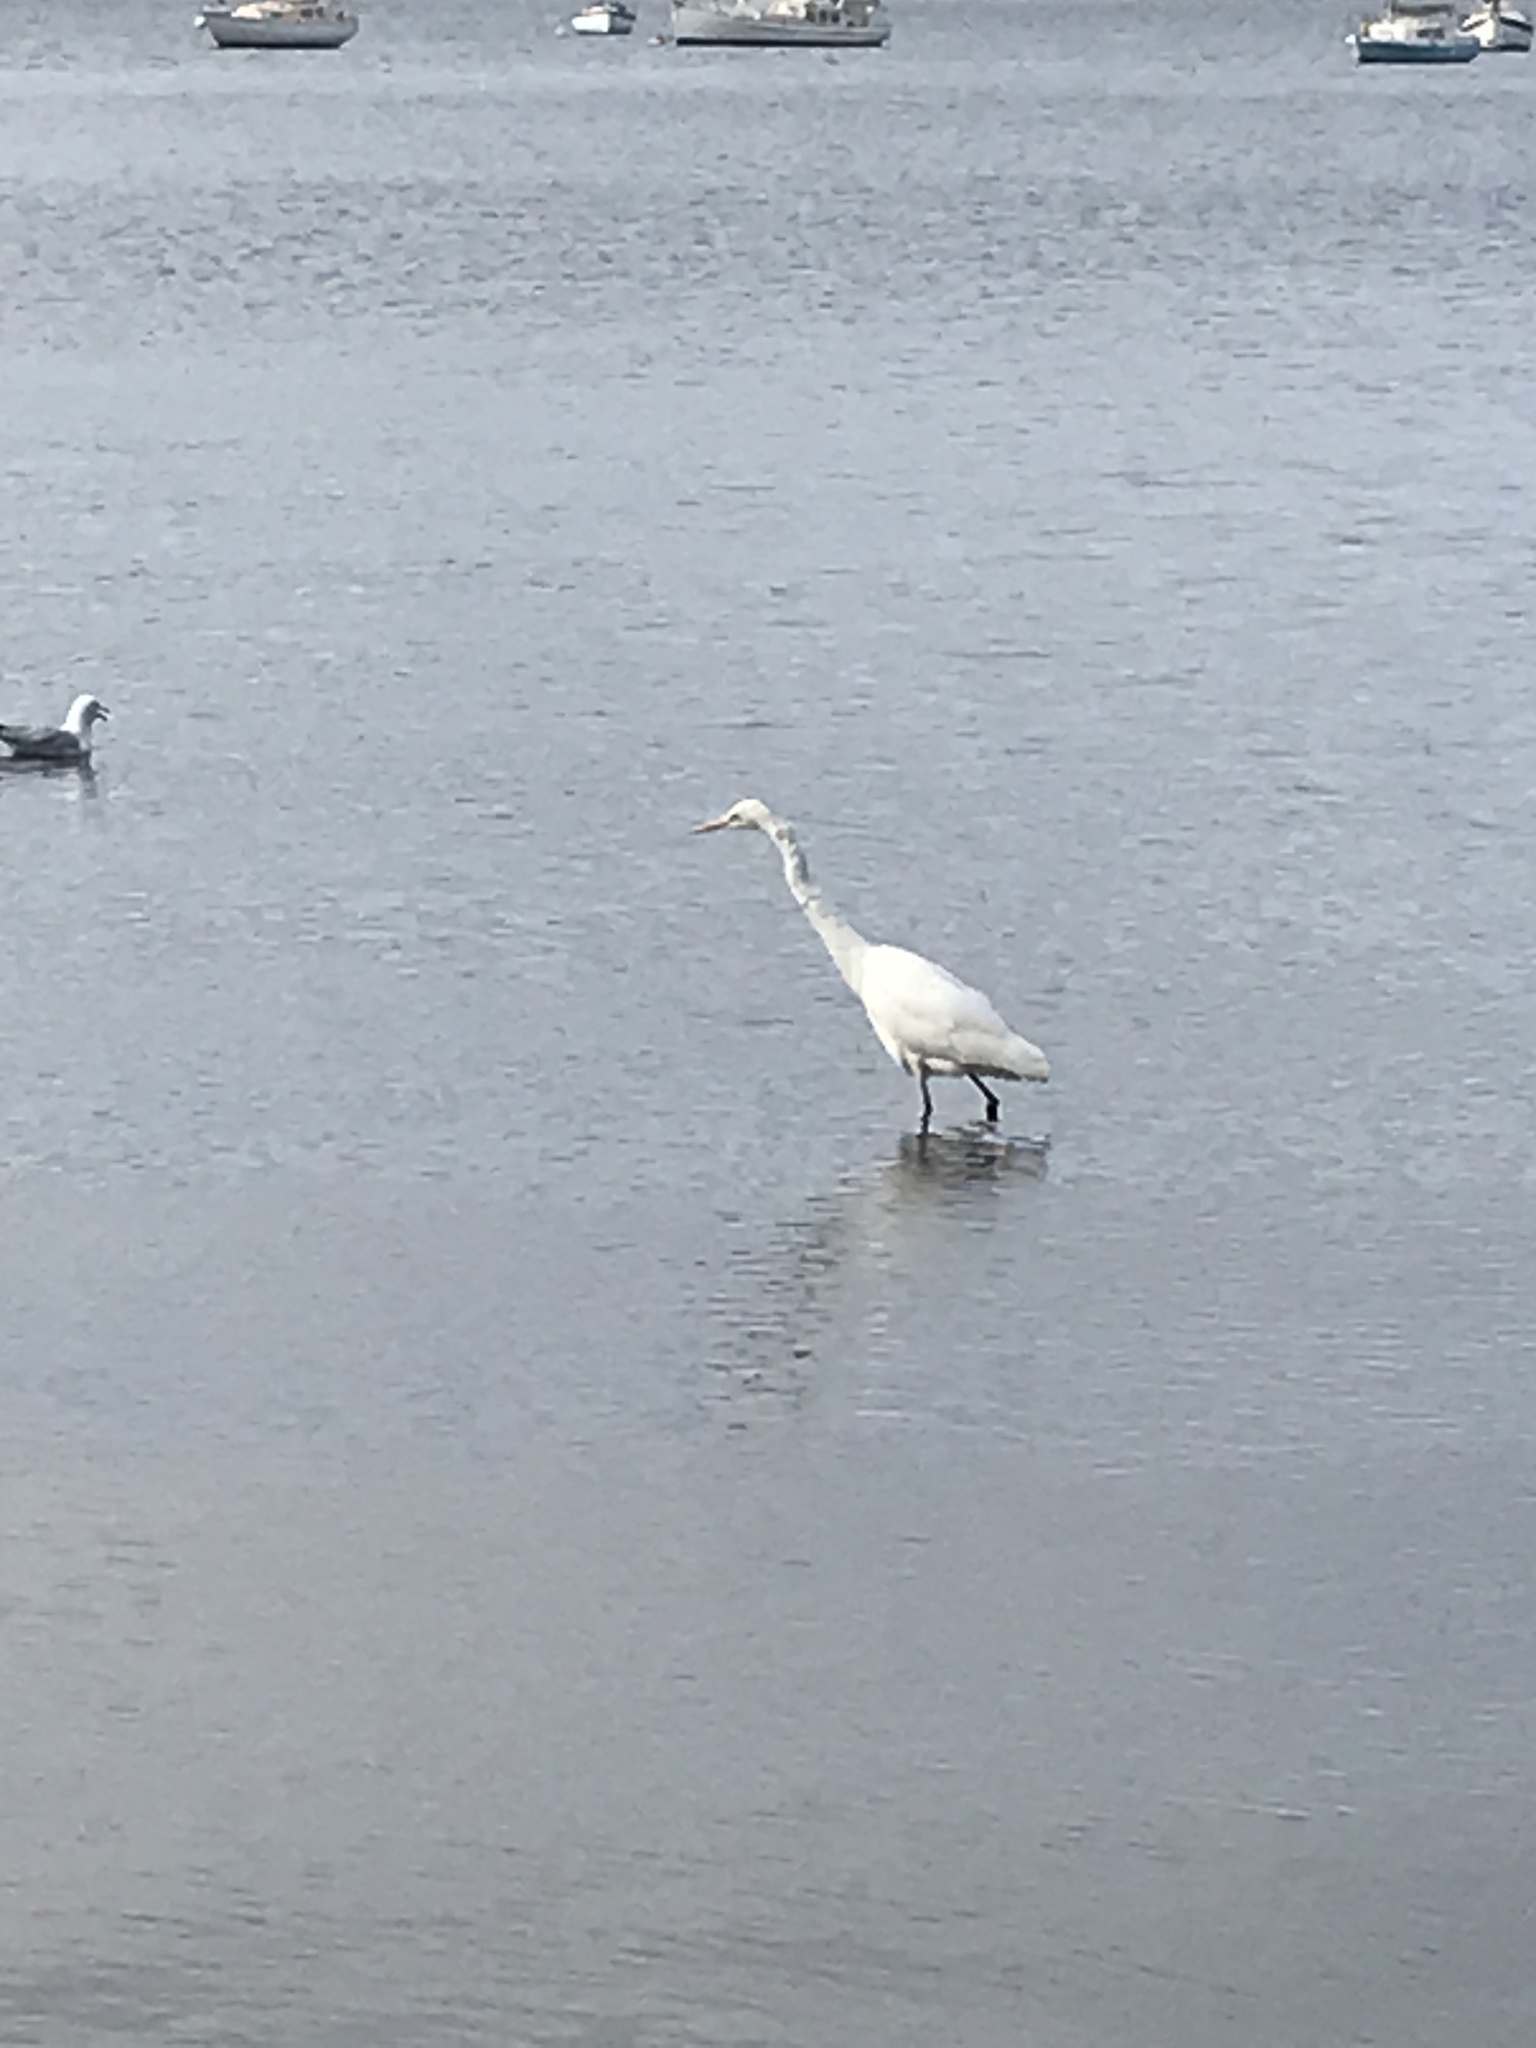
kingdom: Animalia
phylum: Chordata
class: Aves
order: Pelecaniformes
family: Ardeidae
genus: Ardea
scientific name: Ardea alba
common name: Great egret
